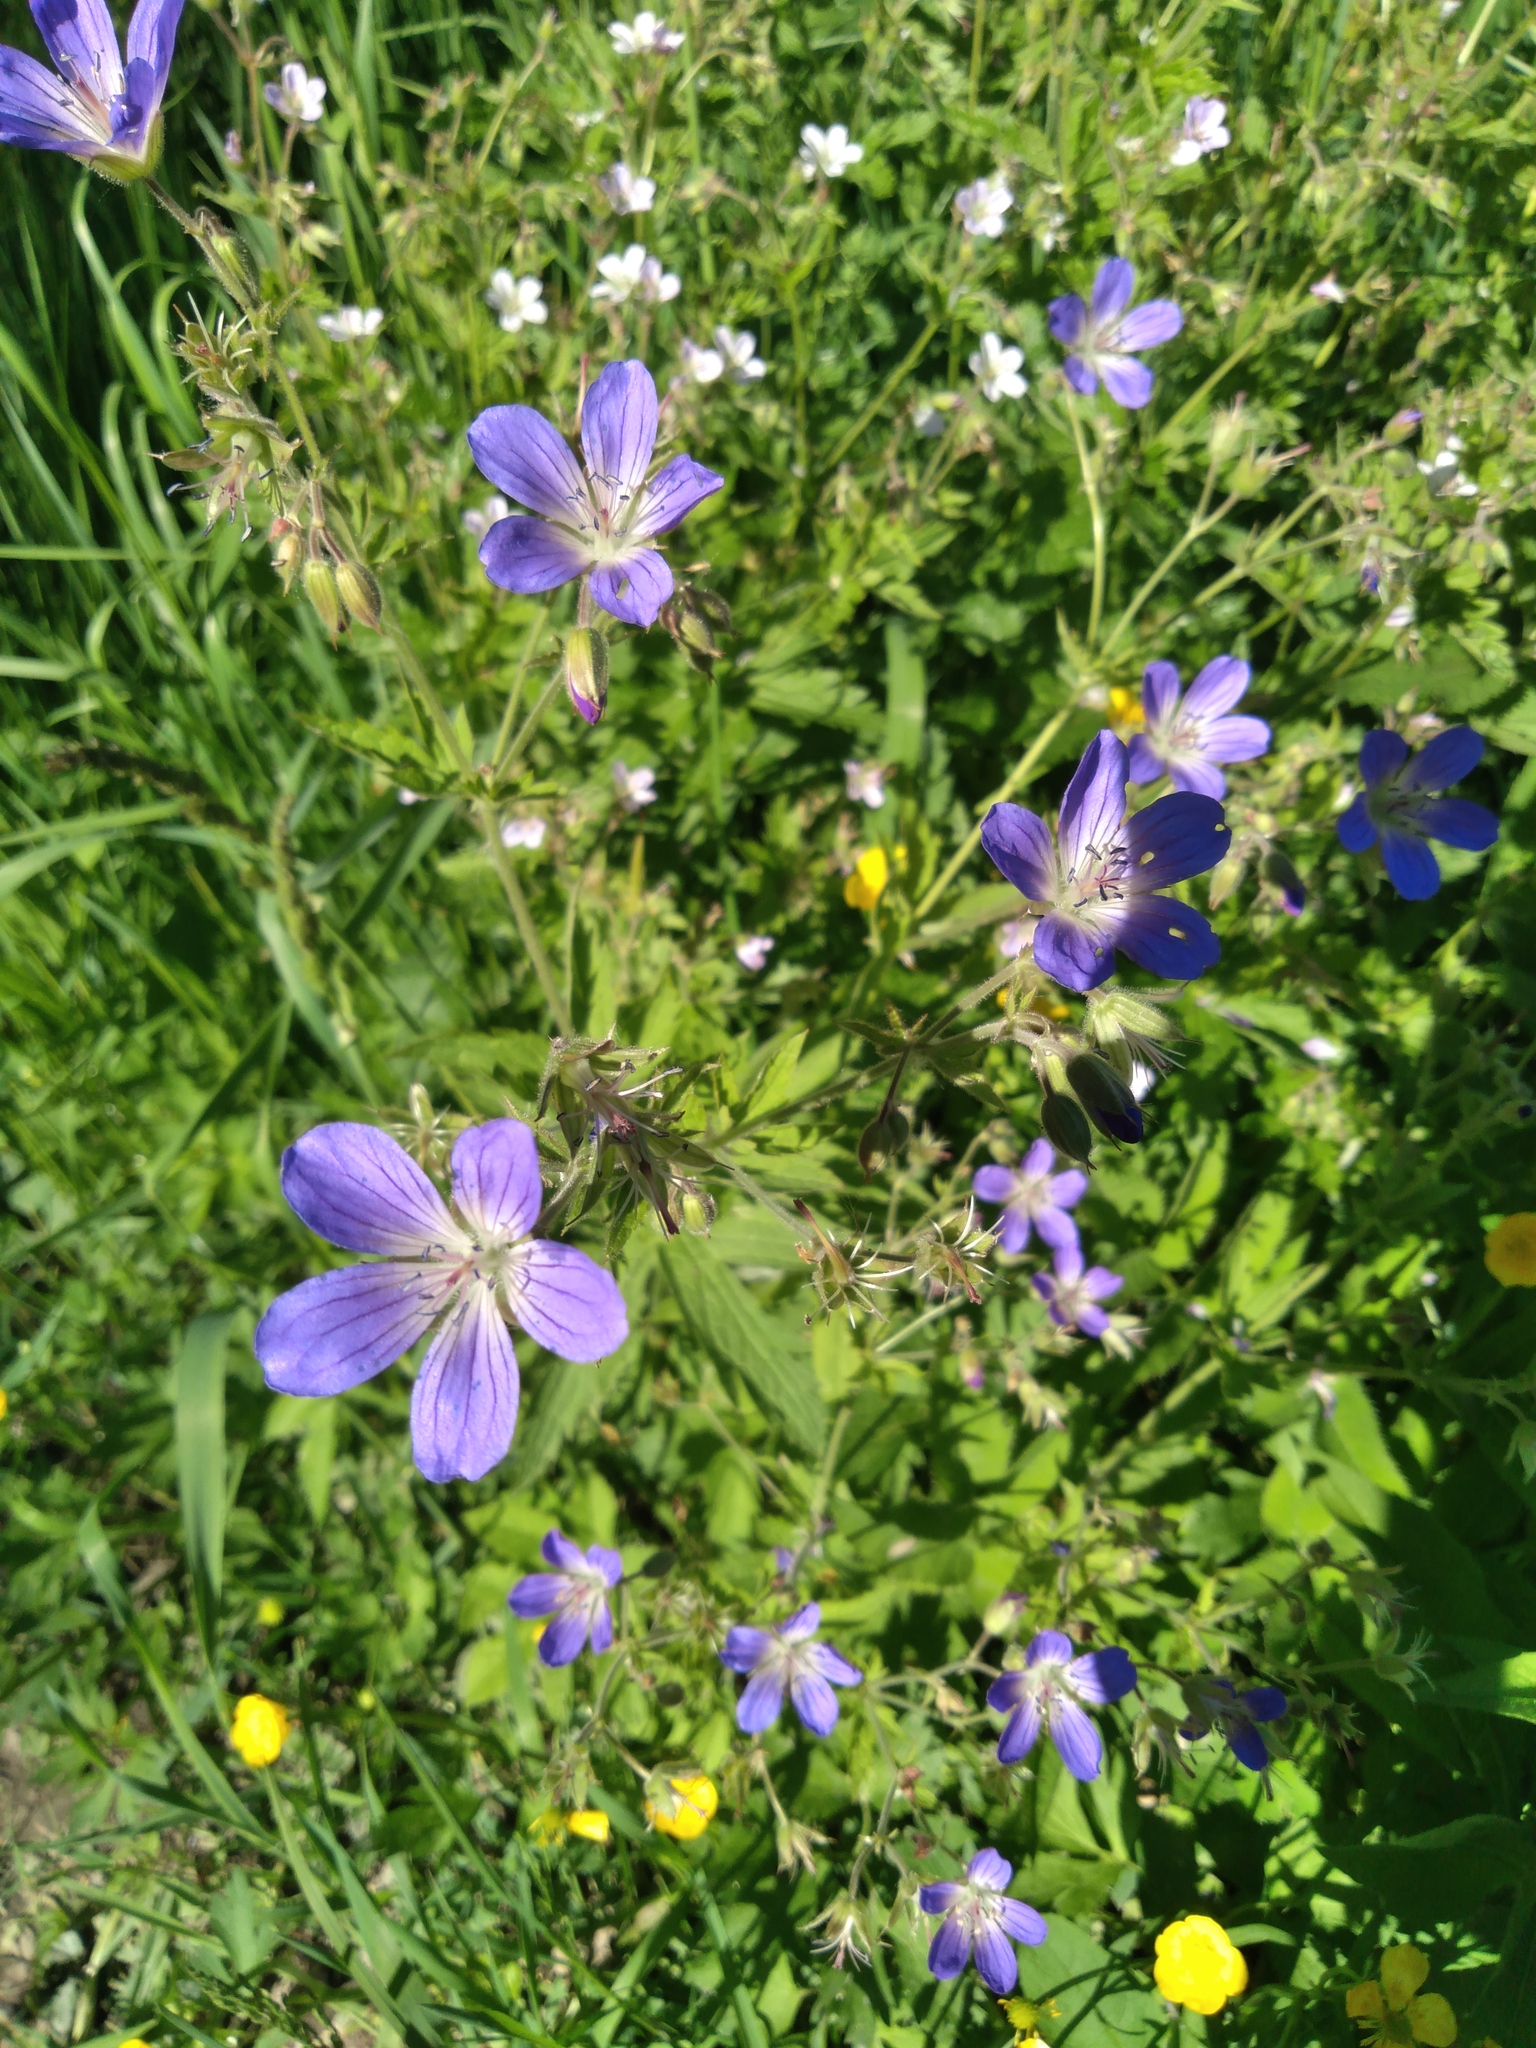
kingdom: Plantae
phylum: Tracheophyta
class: Magnoliopsida
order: Geraniales
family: Geraniaceae
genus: Geranium
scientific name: Geranium sylvaticum
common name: Wood crane's-bill
